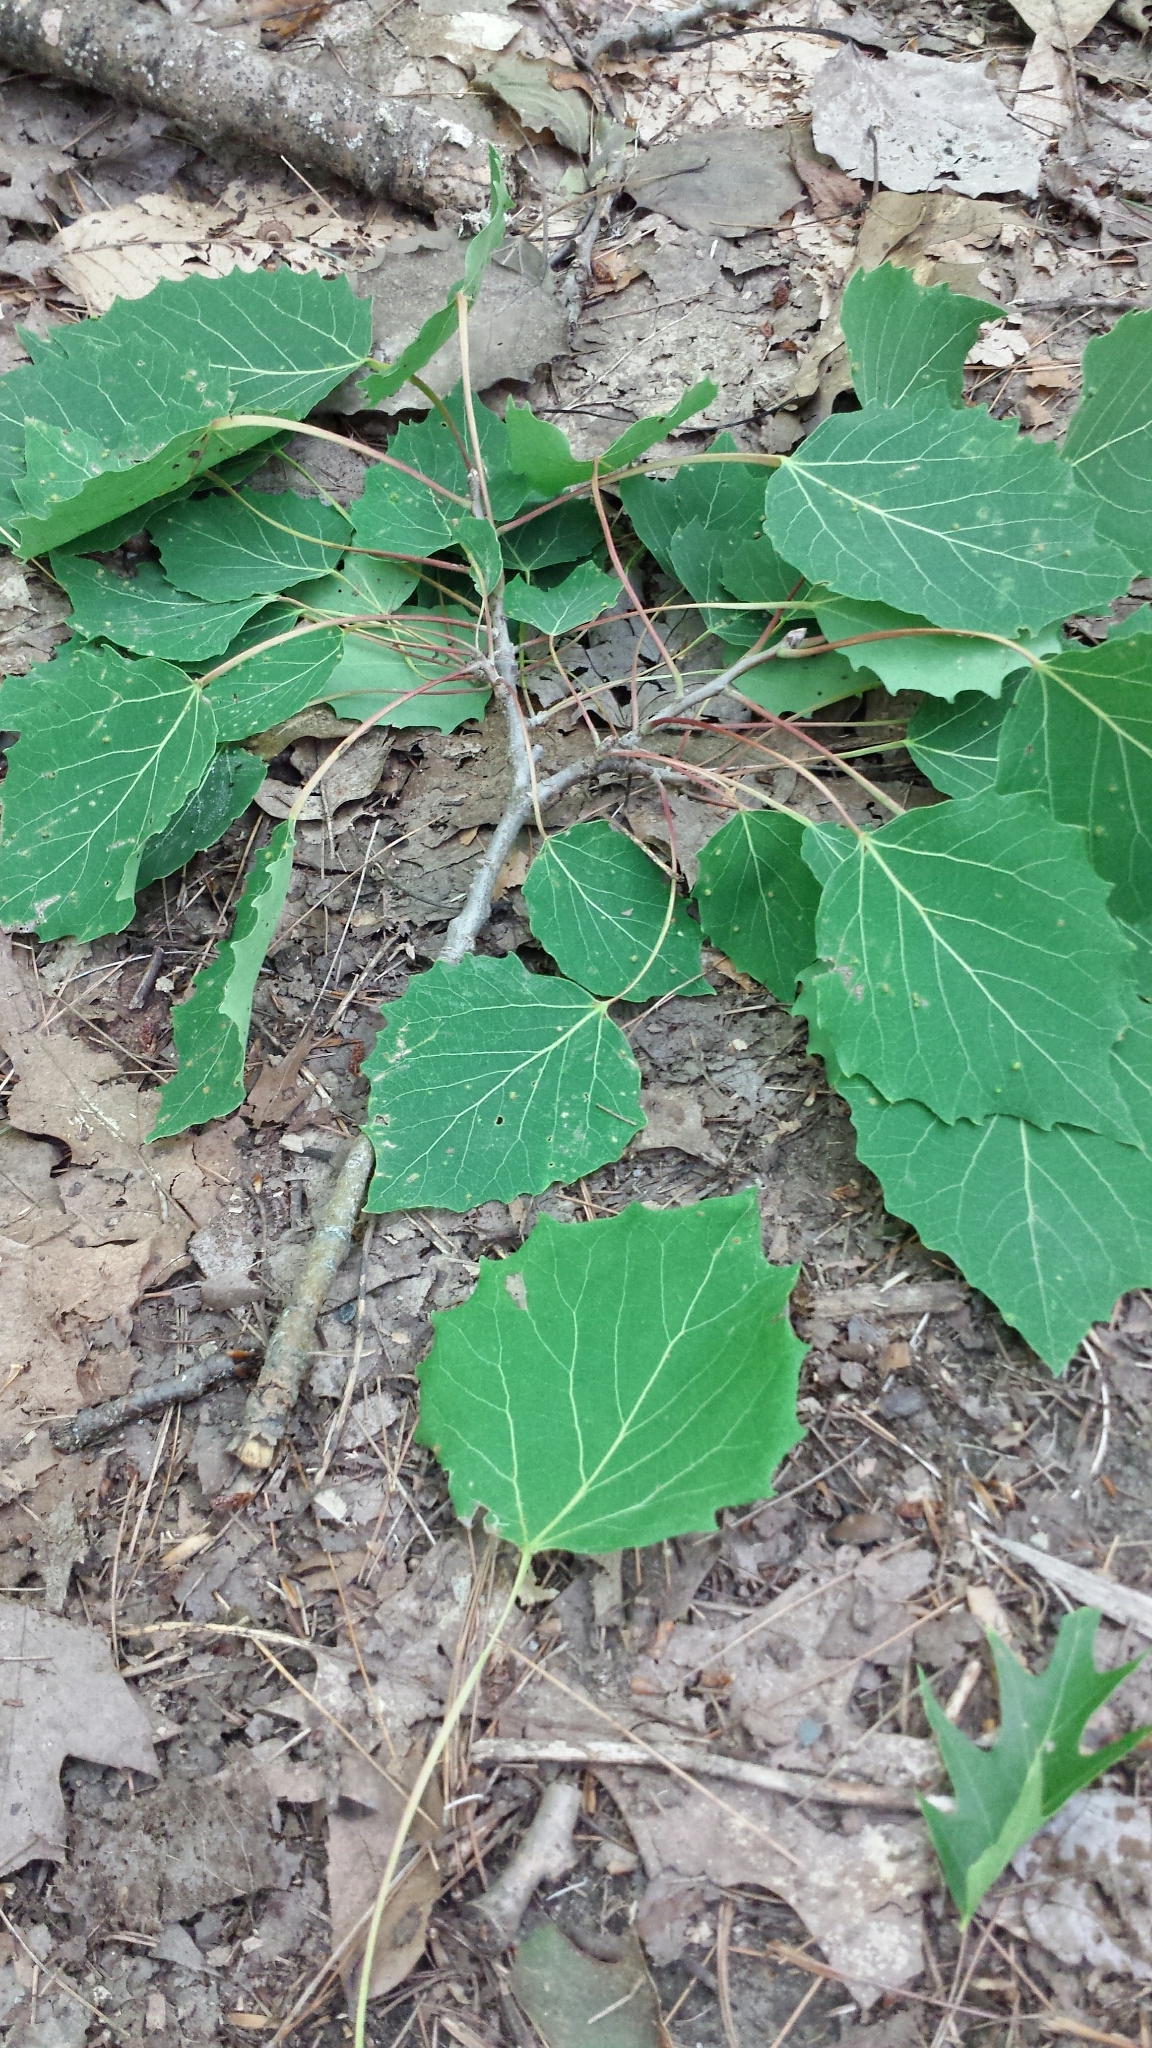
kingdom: Plantae
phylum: Tracheophyta
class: Magnoliopsida
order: Malpighiales
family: Salicaceae
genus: Populus
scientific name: Populus grandidentata
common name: Bigtooth aspen
